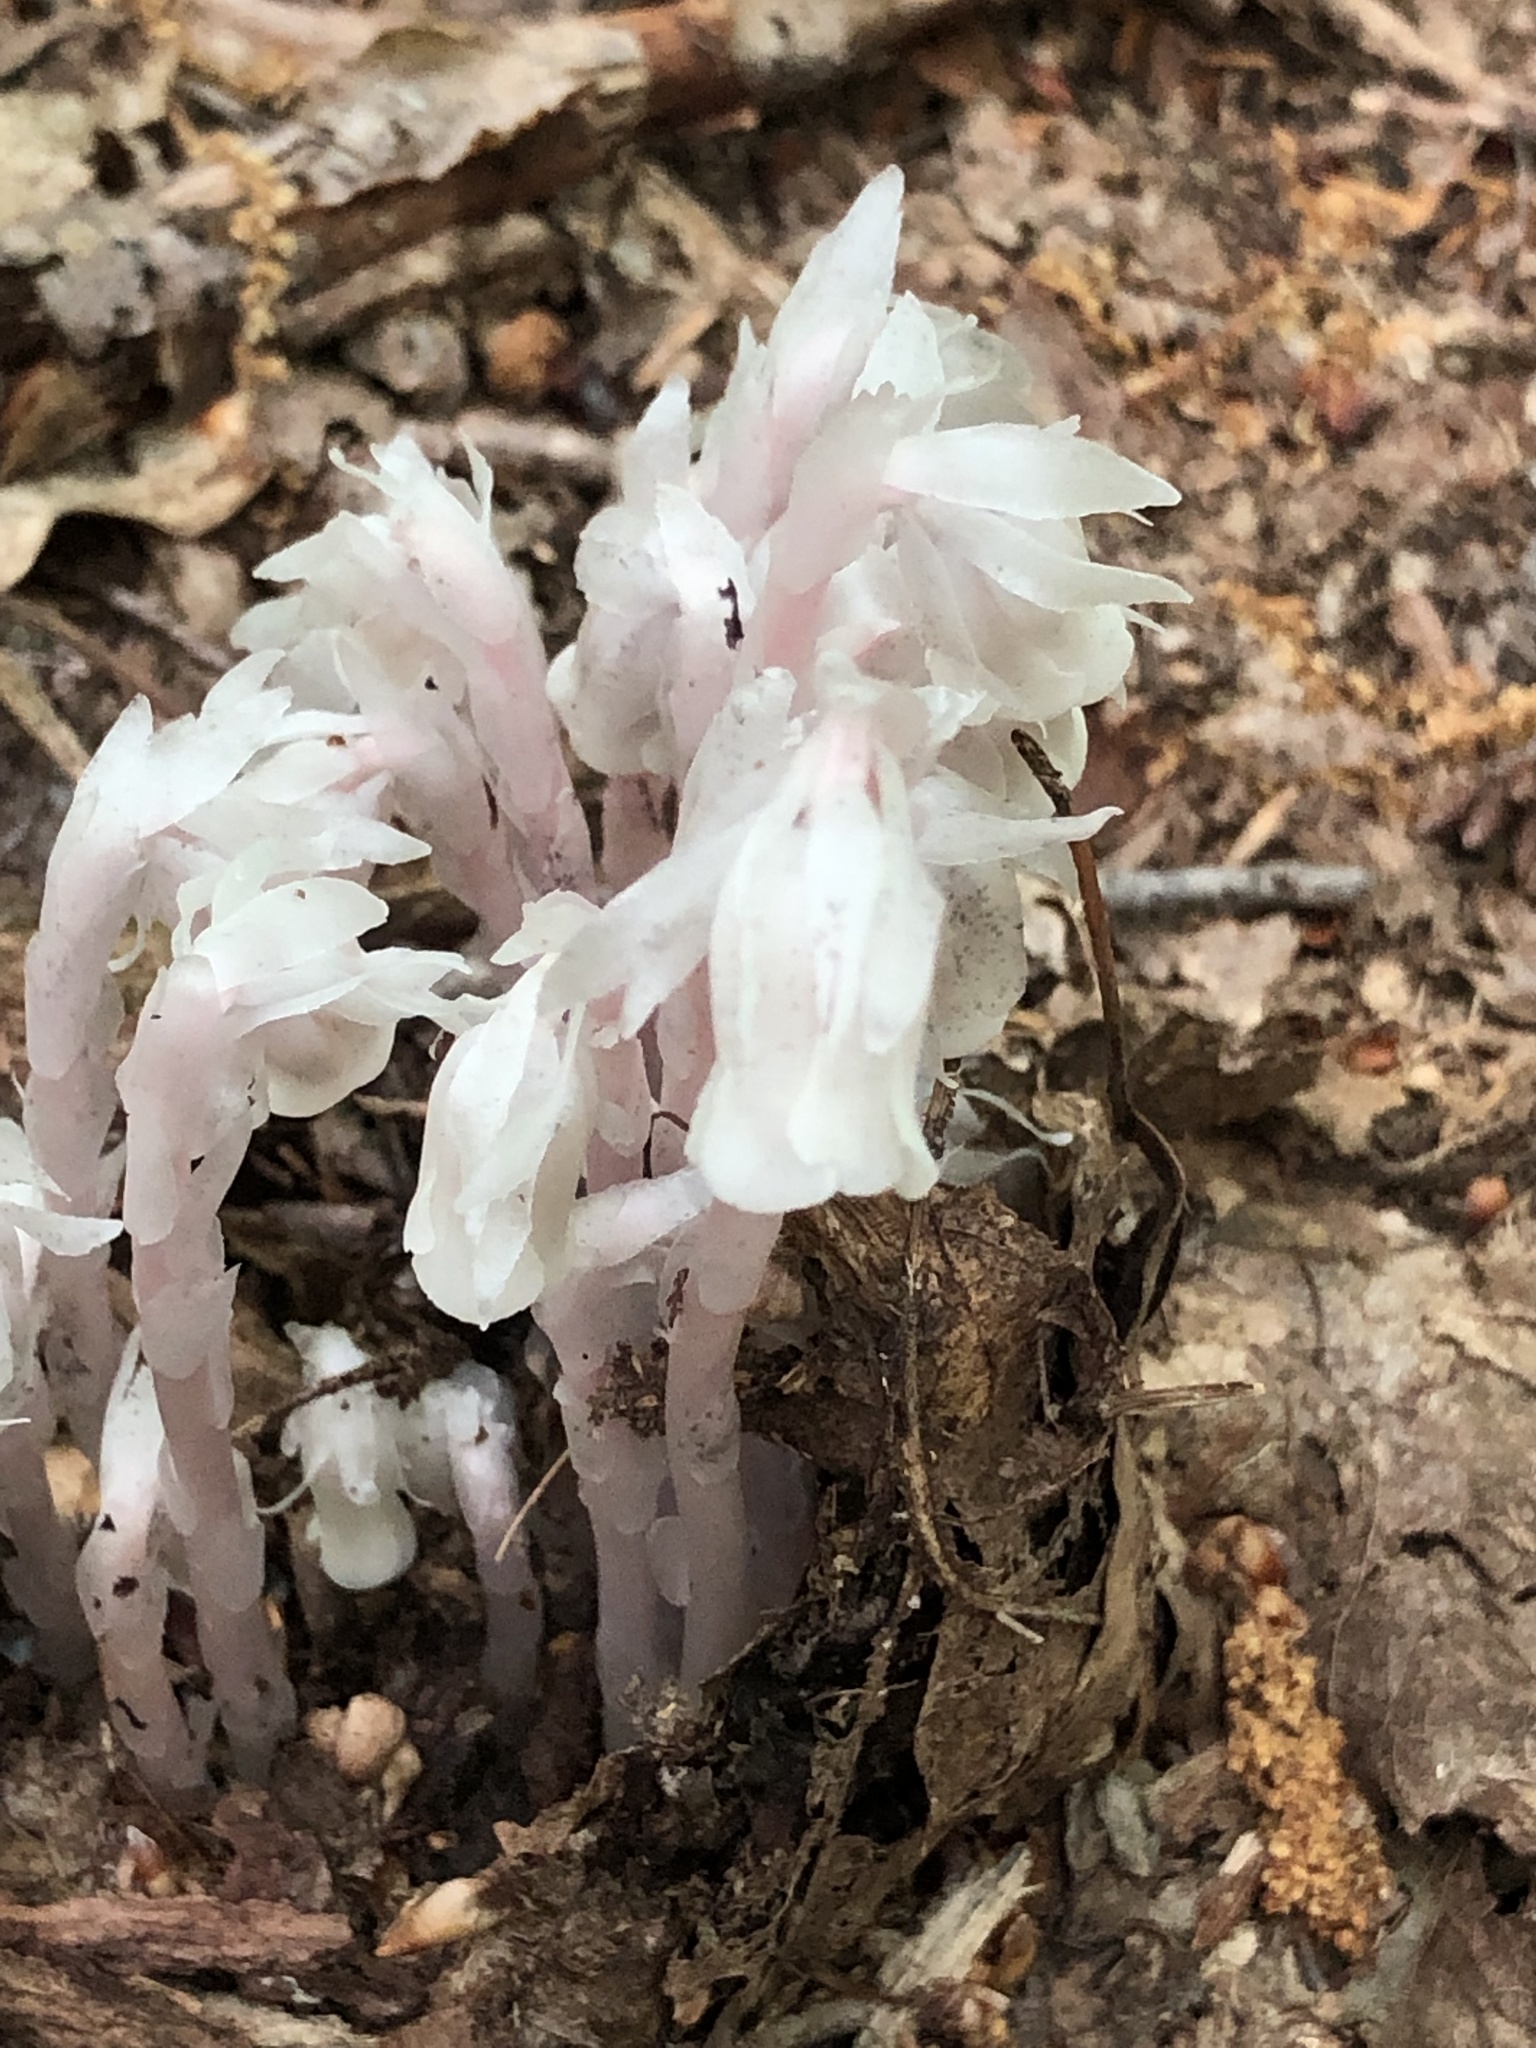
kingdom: Plantae
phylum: Tracheophyta
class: Magnoliopsida
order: Ericales
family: Ericaceae
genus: Monotropa
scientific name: Monotropa uniflora
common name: Convulsion root
